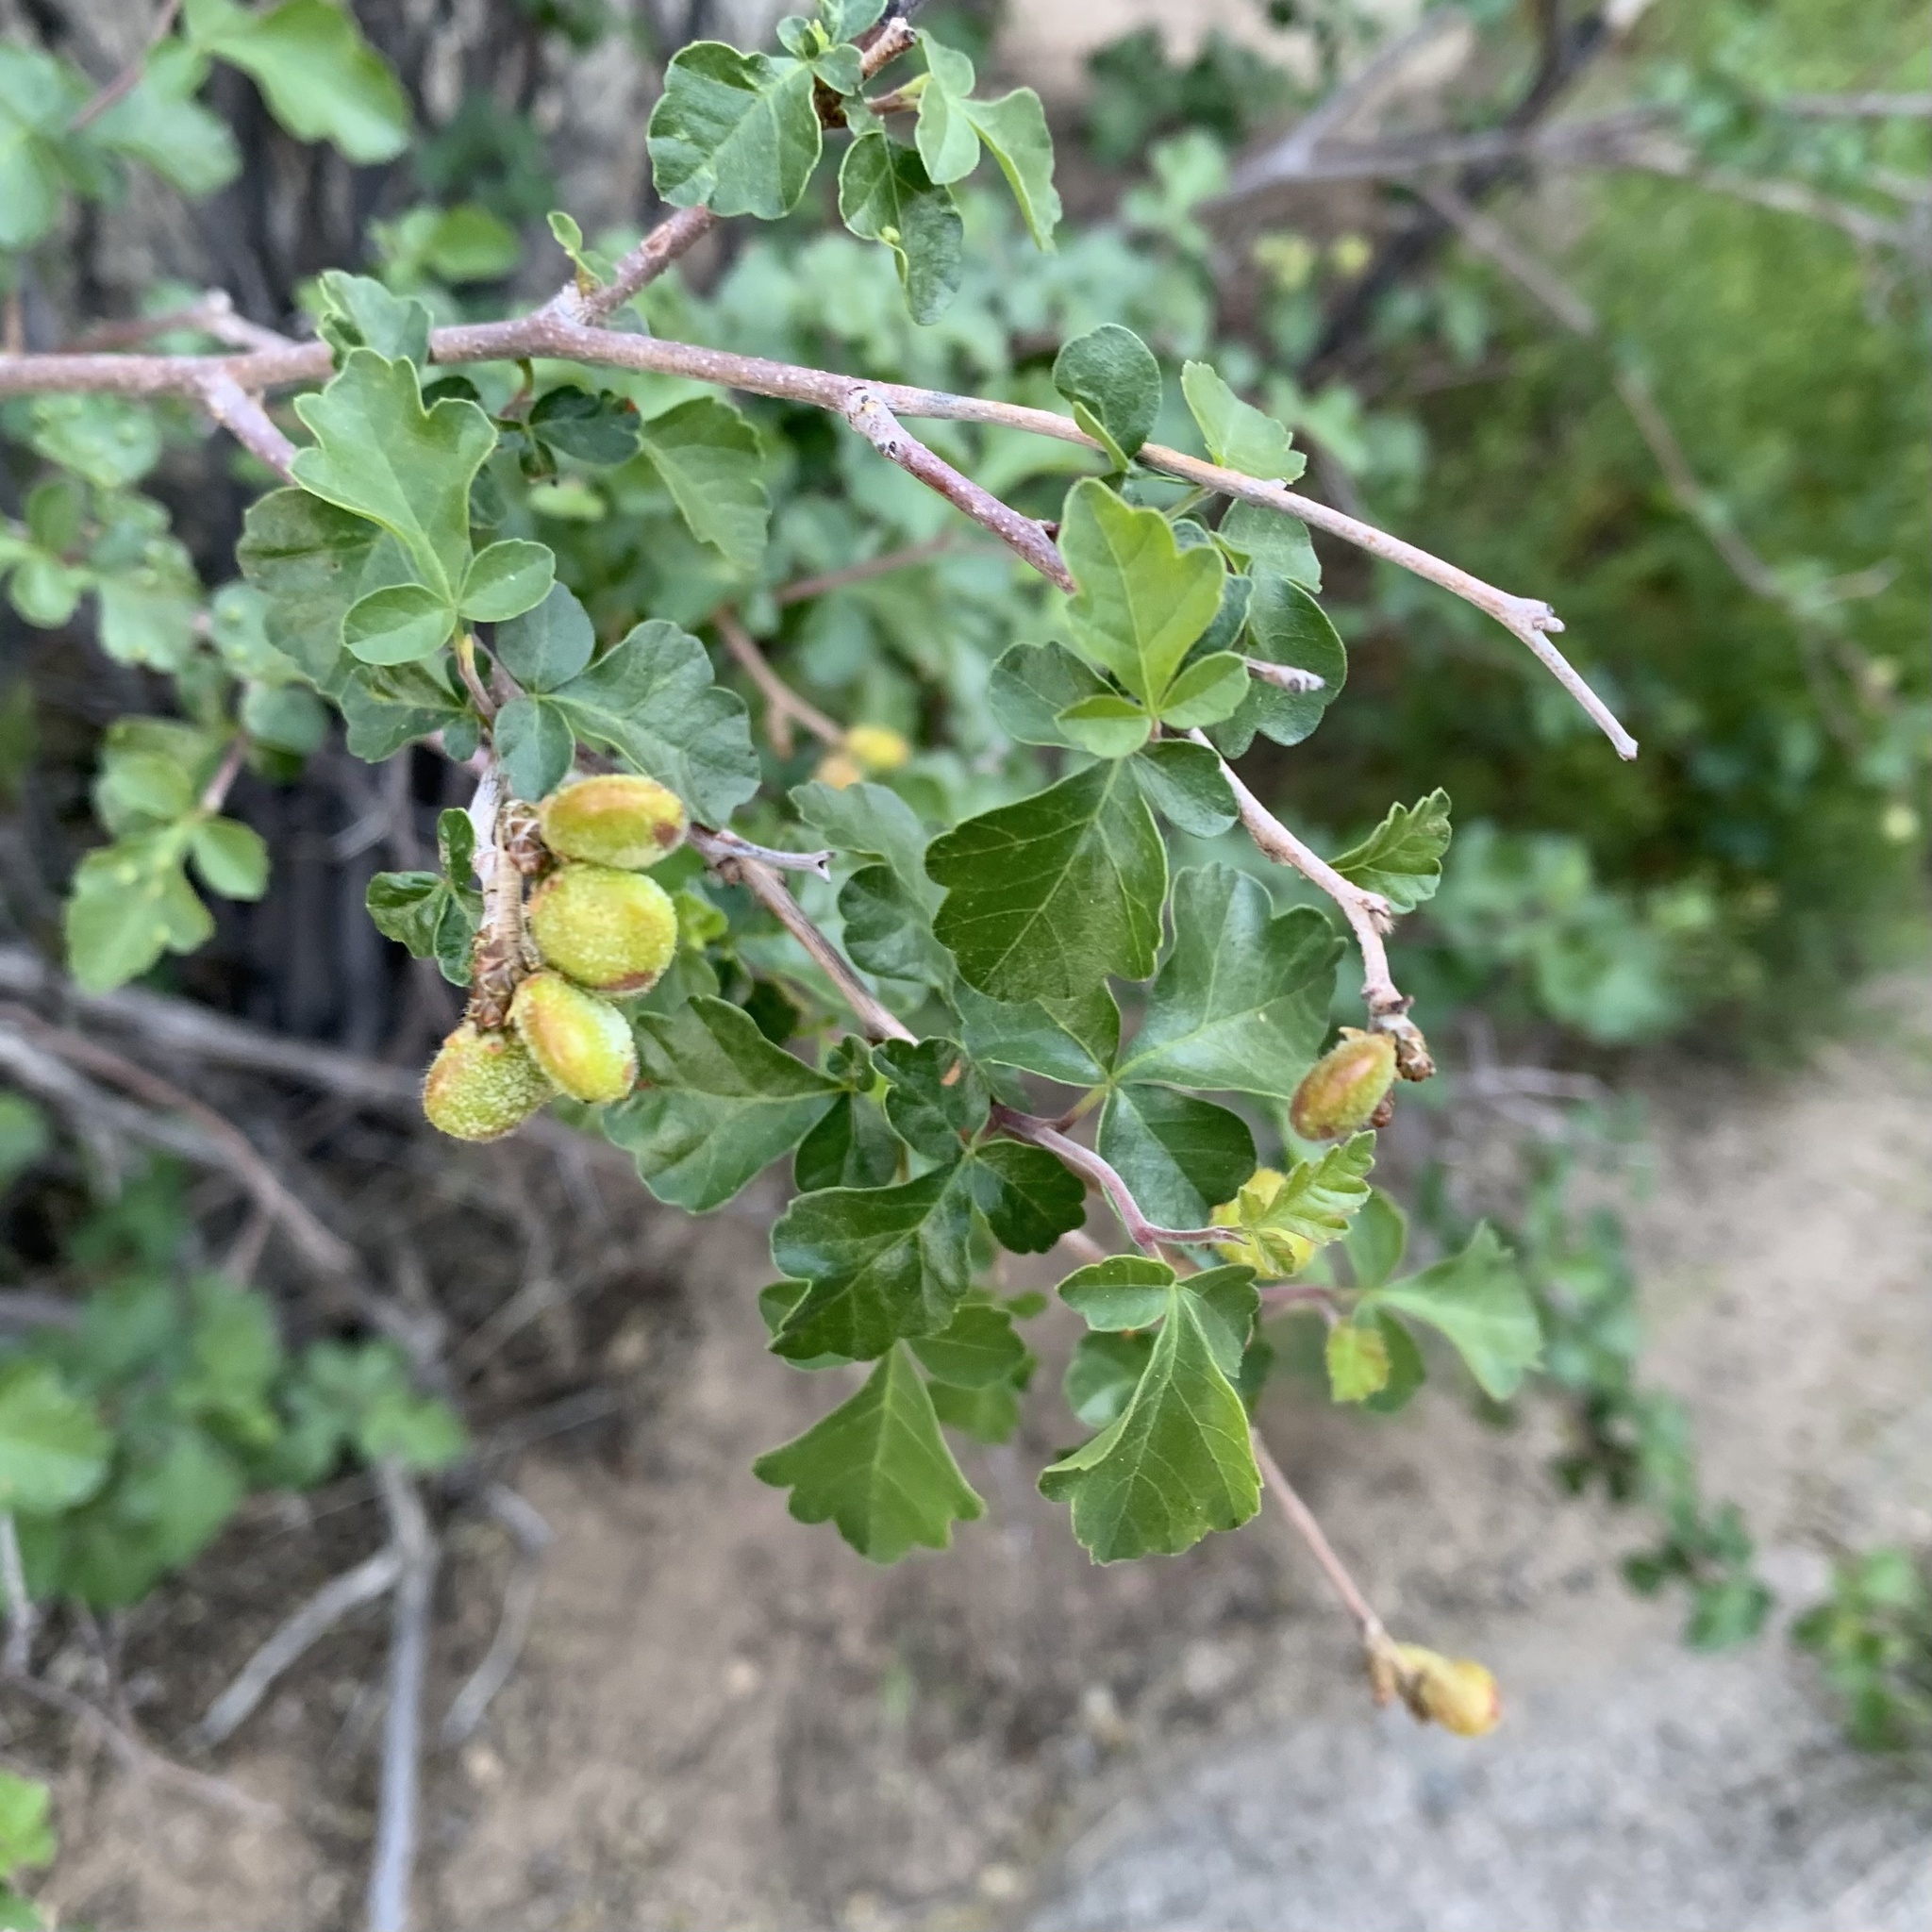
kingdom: Plantae
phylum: Tracheophyta
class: Magnoliopsida
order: Sapindales
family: Anacardiaceae
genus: Rhus
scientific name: Rhus aromatica
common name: Aromatic sumac
